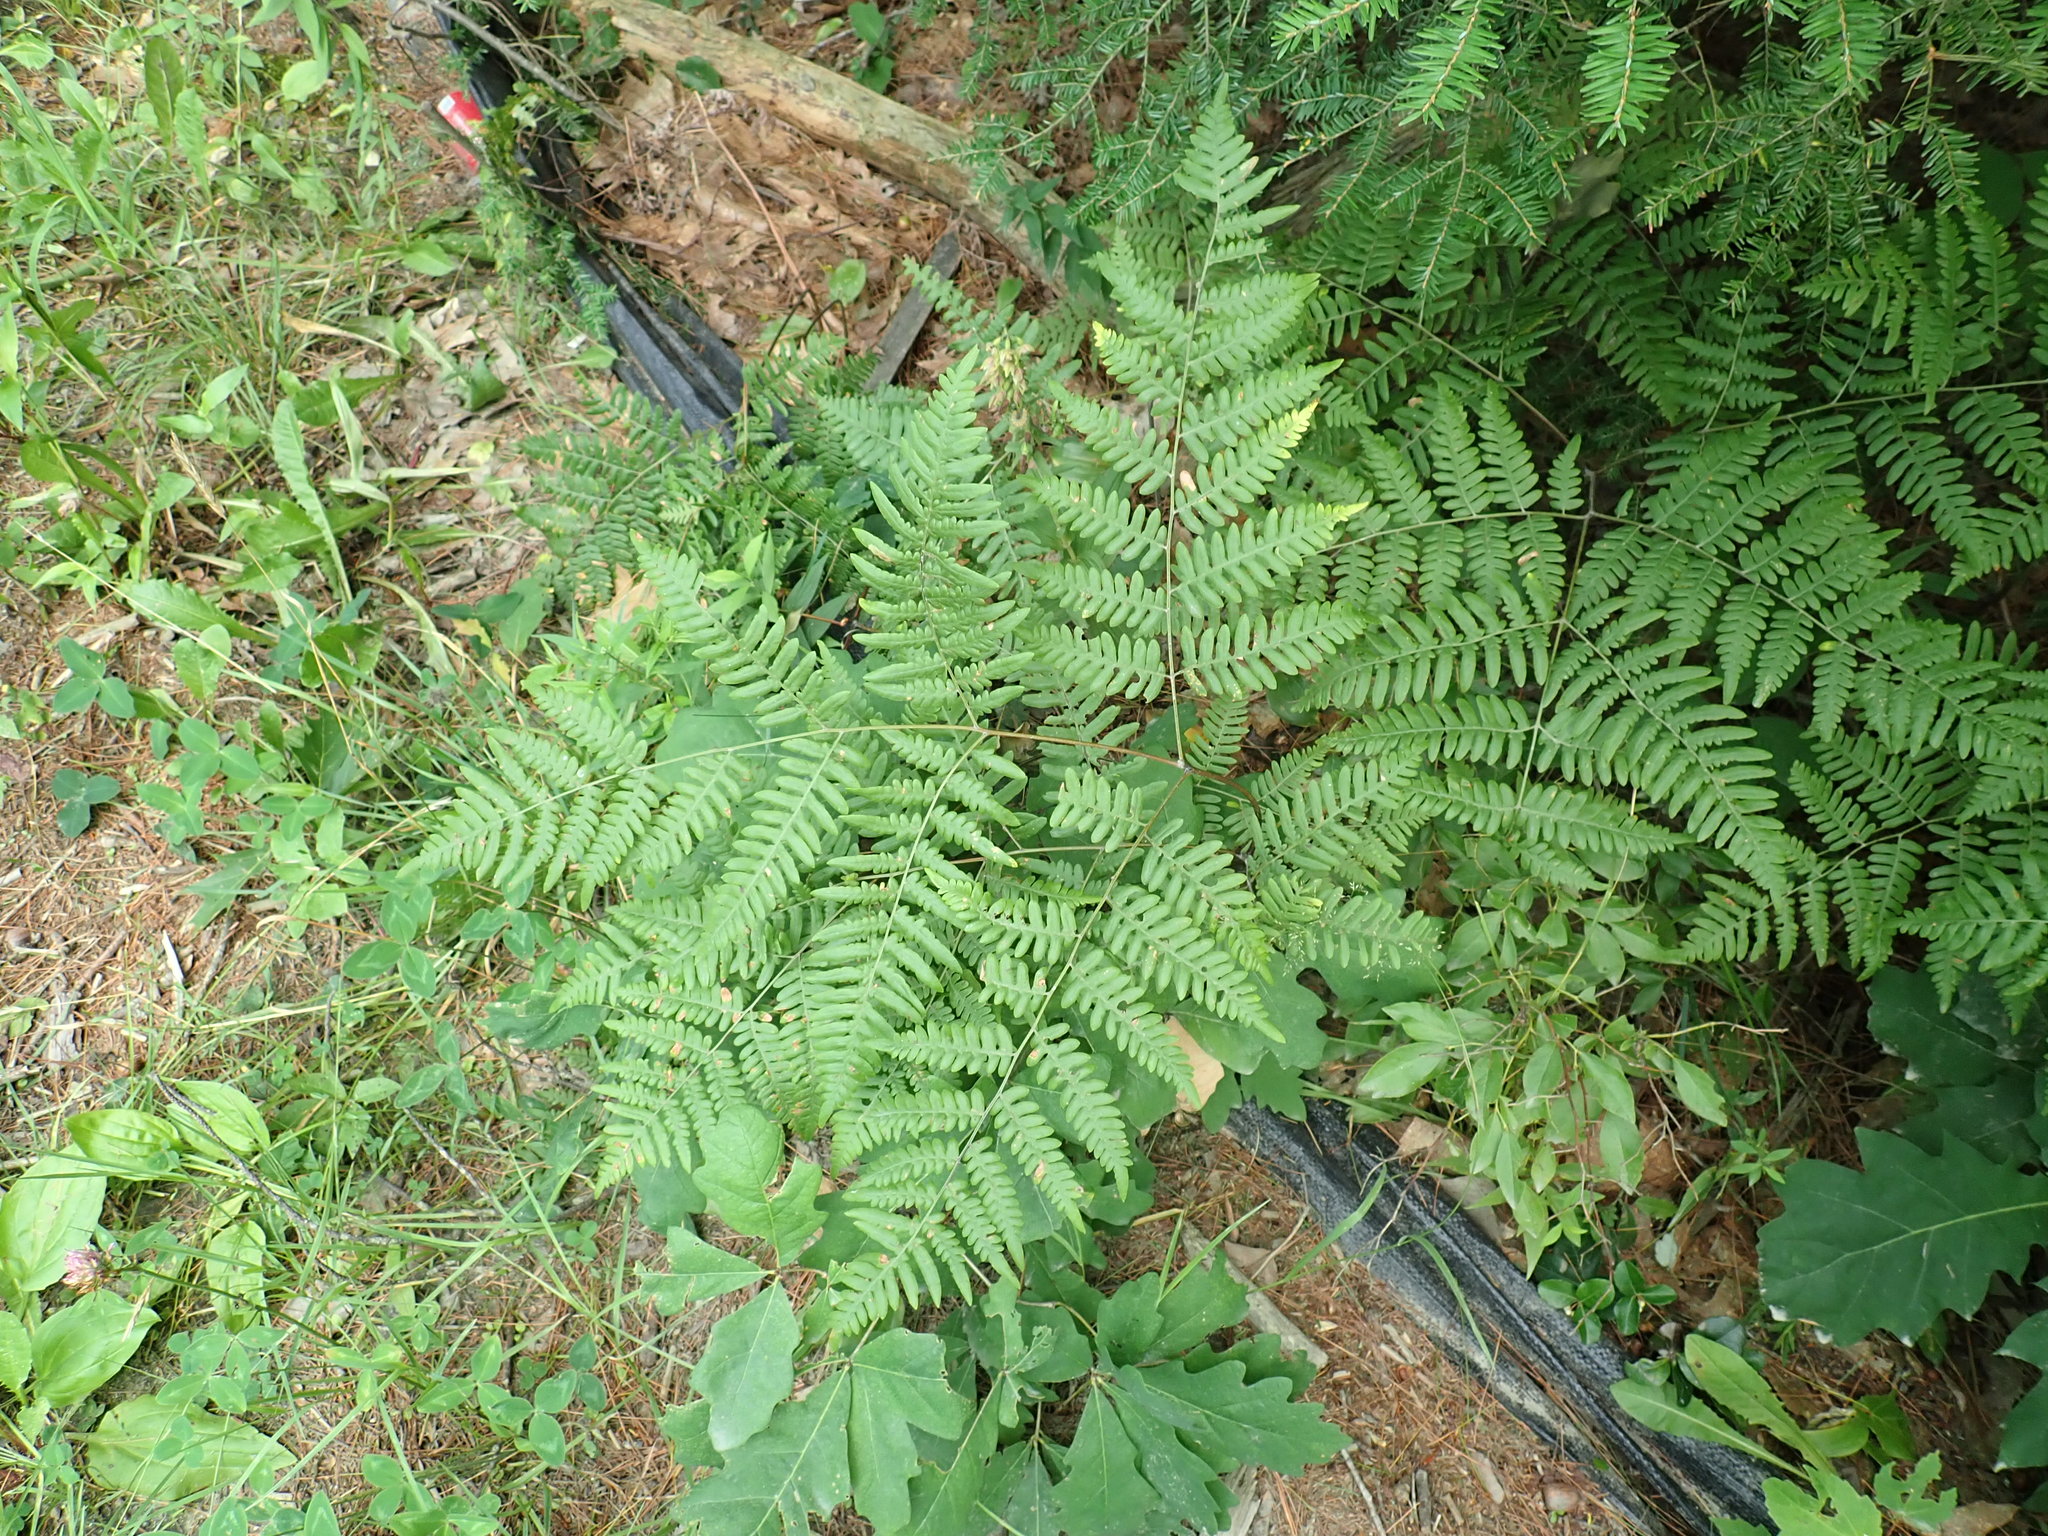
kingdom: Plantae
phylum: Tracheophyta
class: Polypodiopsida
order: Polypodiales
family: Dennstaedtiaceae
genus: Pteridium
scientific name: Pteridium aquilinum
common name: Bracken
